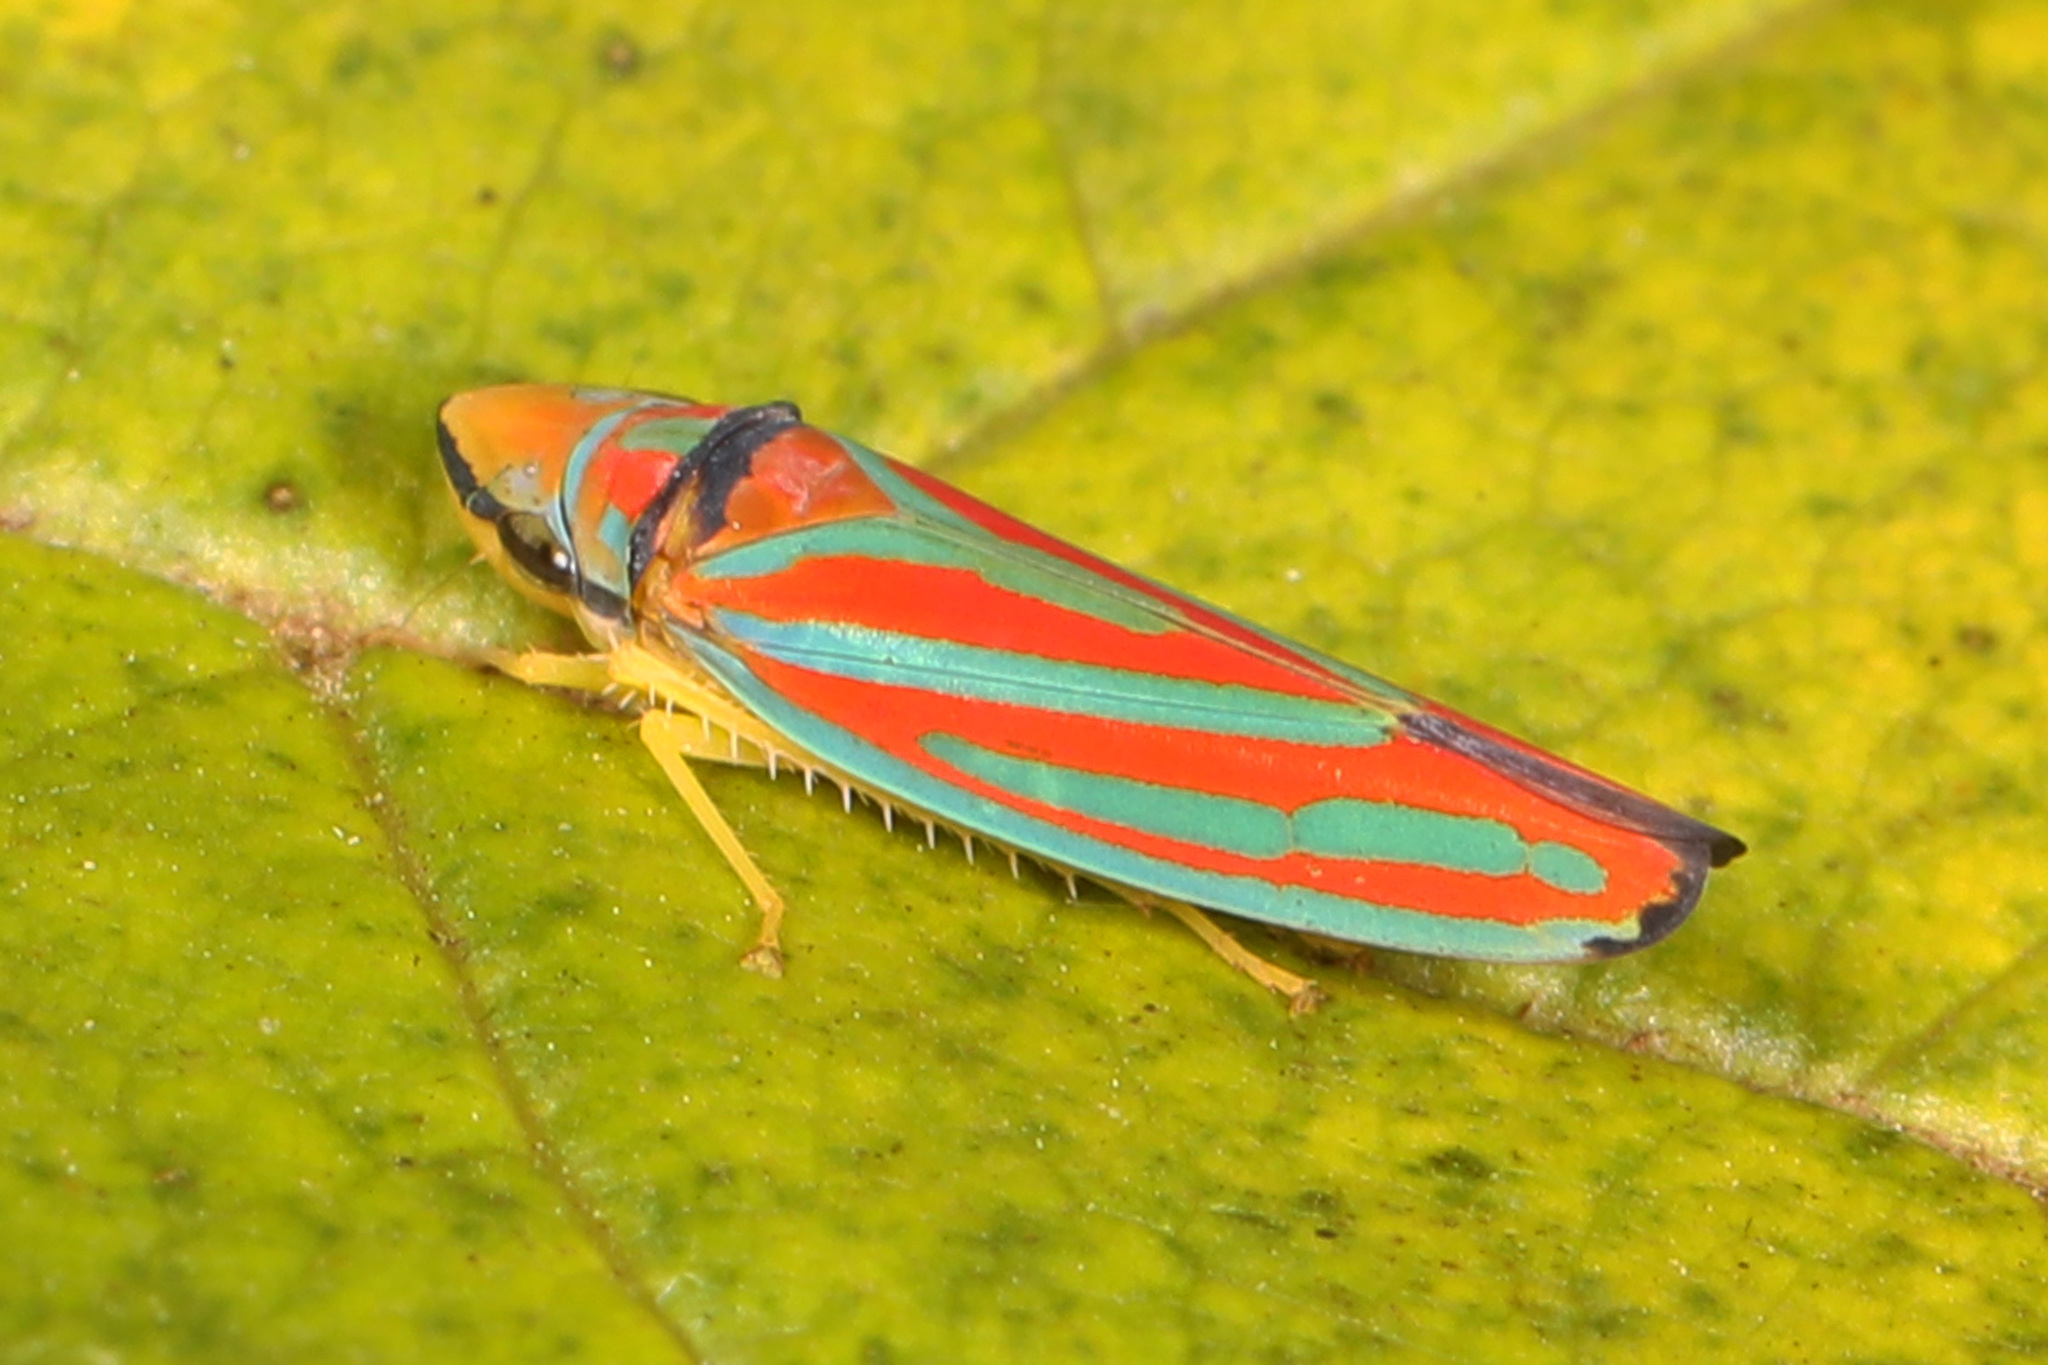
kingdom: Animalia
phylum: Arthropoda
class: Insecta
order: Hemiptera
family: Cicadellidae
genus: Graphocephala
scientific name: Graphocephala coccinea
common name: Candy-striped leafhopper
